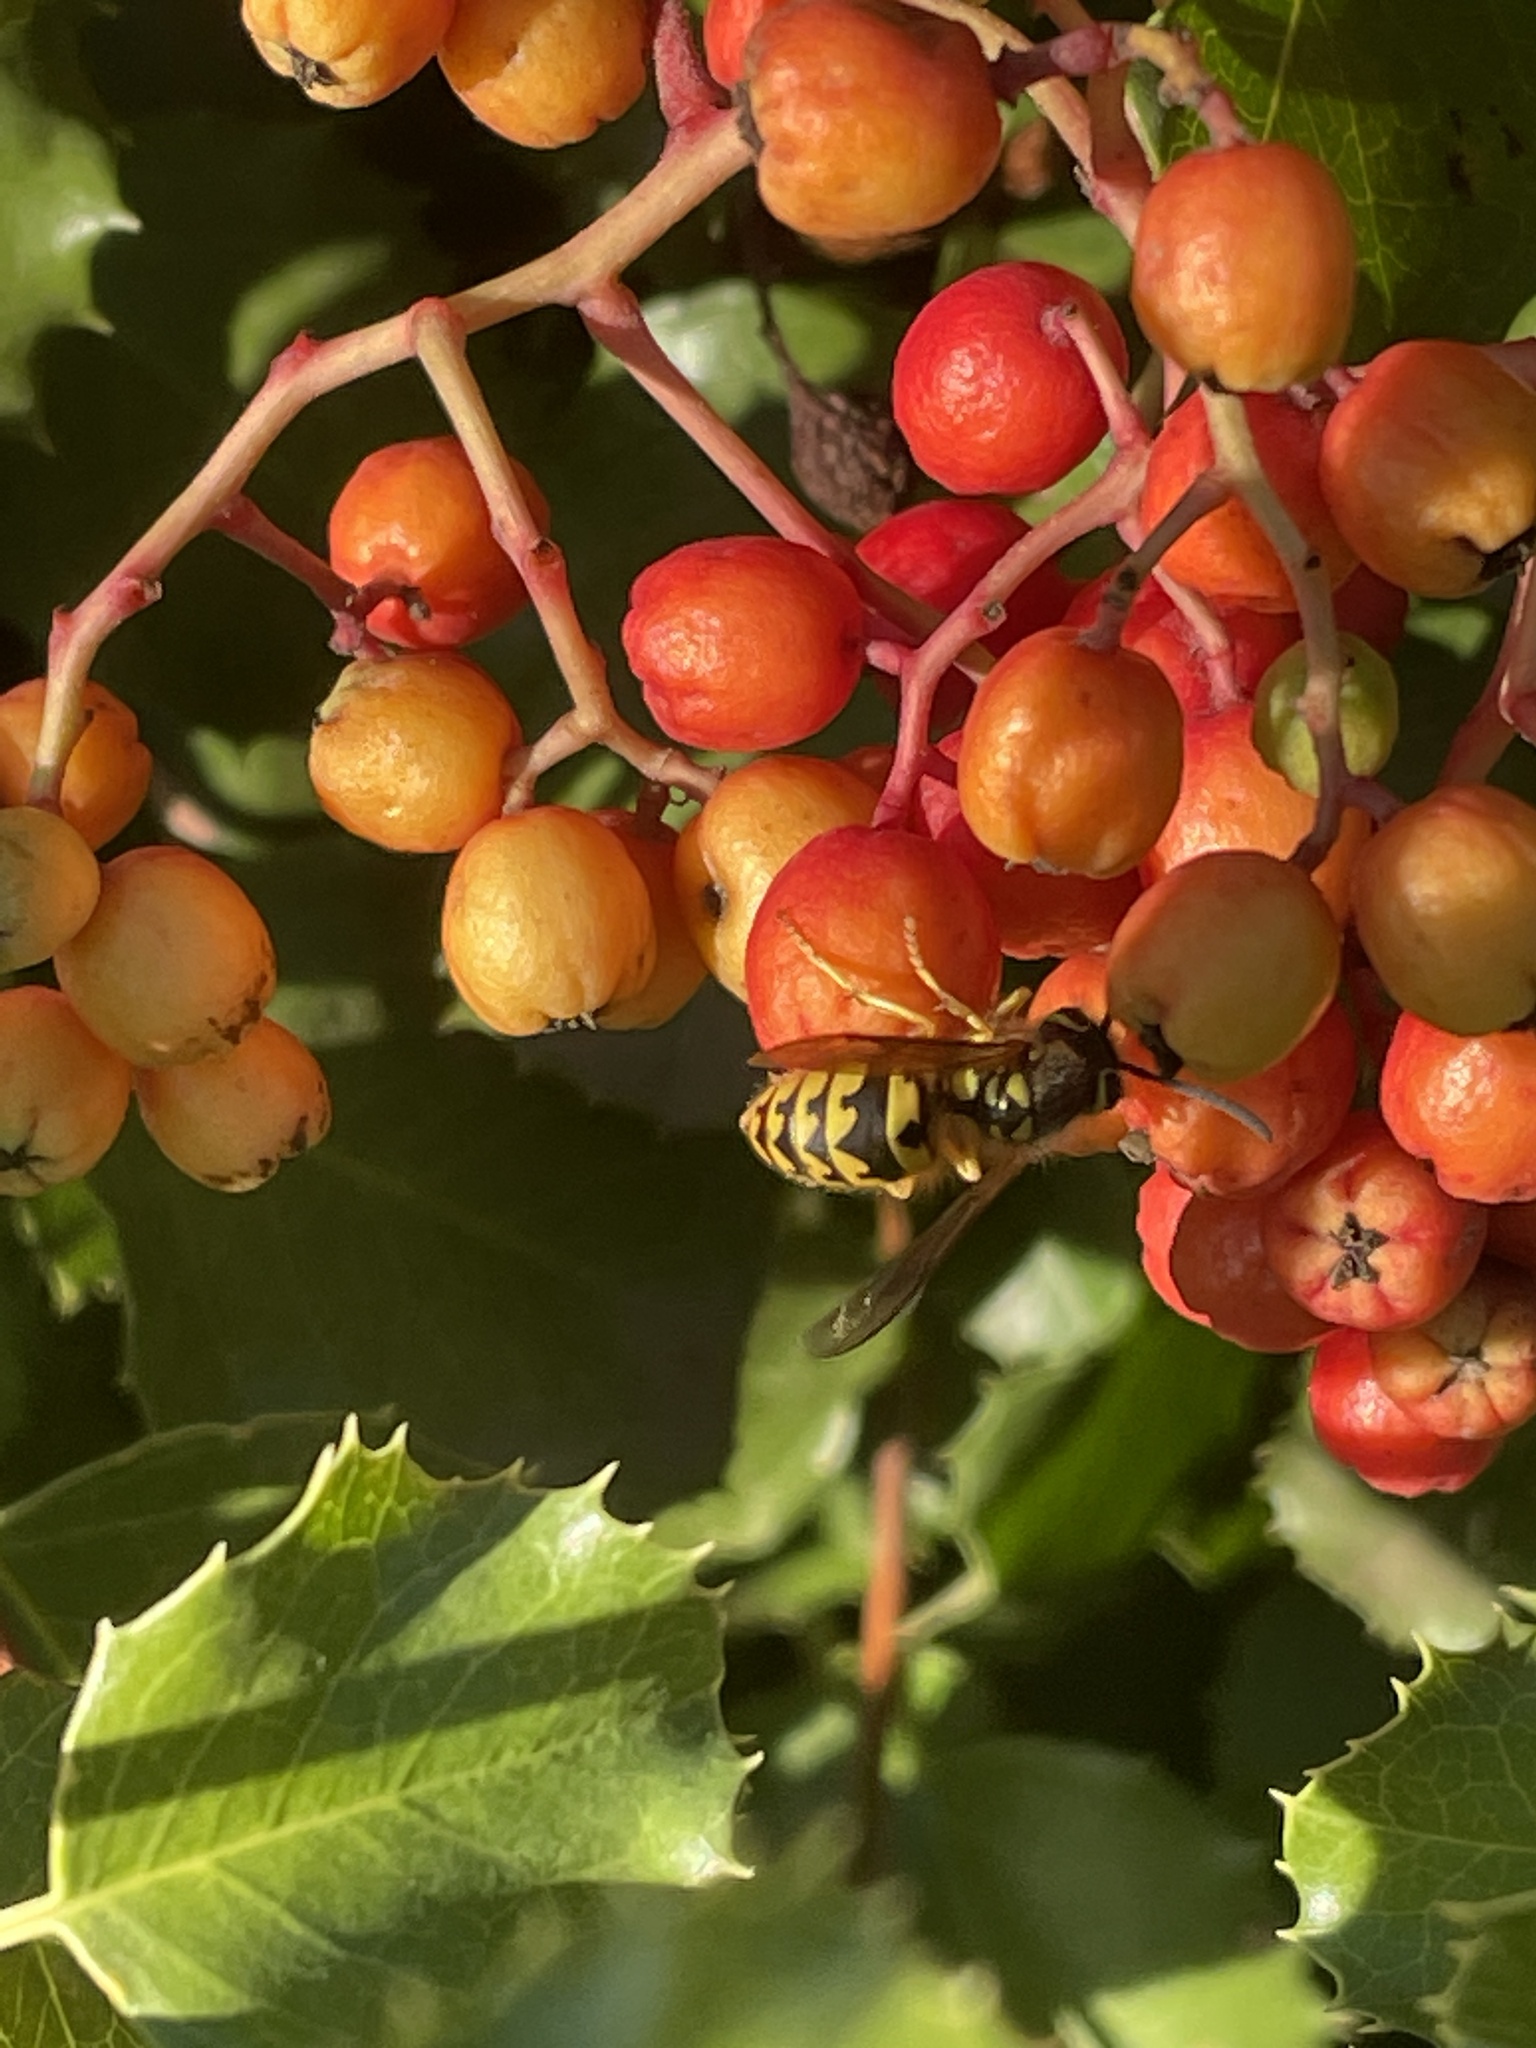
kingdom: Animalia
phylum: Arthropoda
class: Insecta
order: Hymenoptera
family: Vespidae
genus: Vespula
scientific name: Vespula pensylvanica
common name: Western yellowjacket
